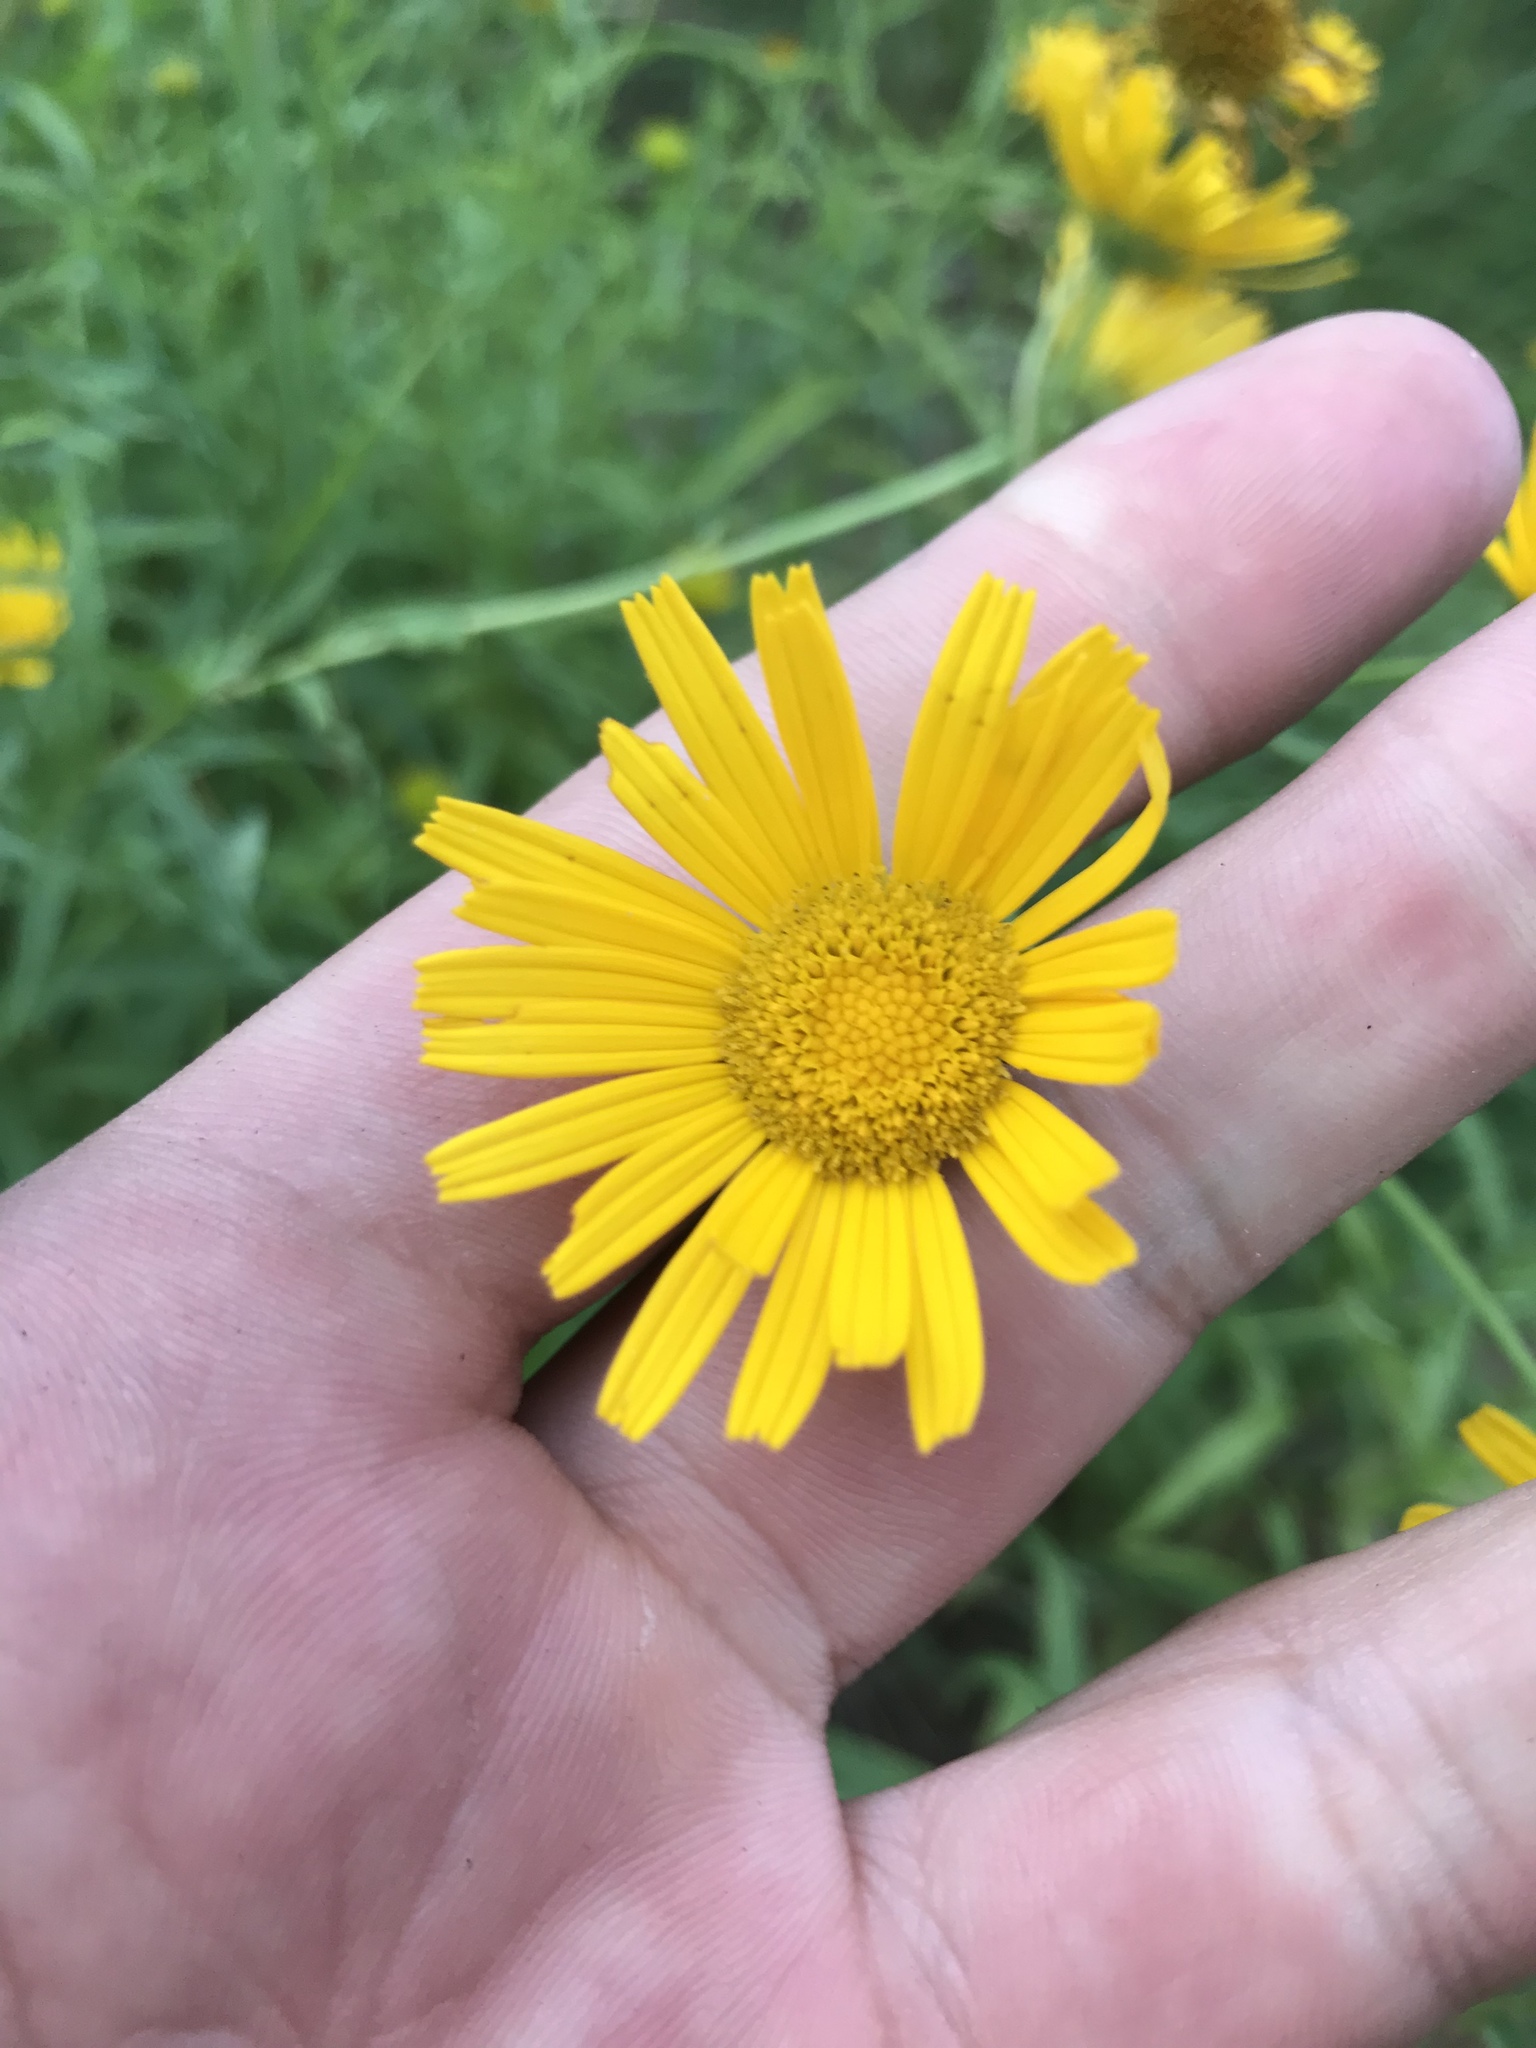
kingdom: Plantae
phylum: Tracheophyta
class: Magnoliopsida
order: Asterales
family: Asteraceae
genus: Buphthalmum
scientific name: Buphthalmum salicifolium
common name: Willow-leaved yellow-oxeye
